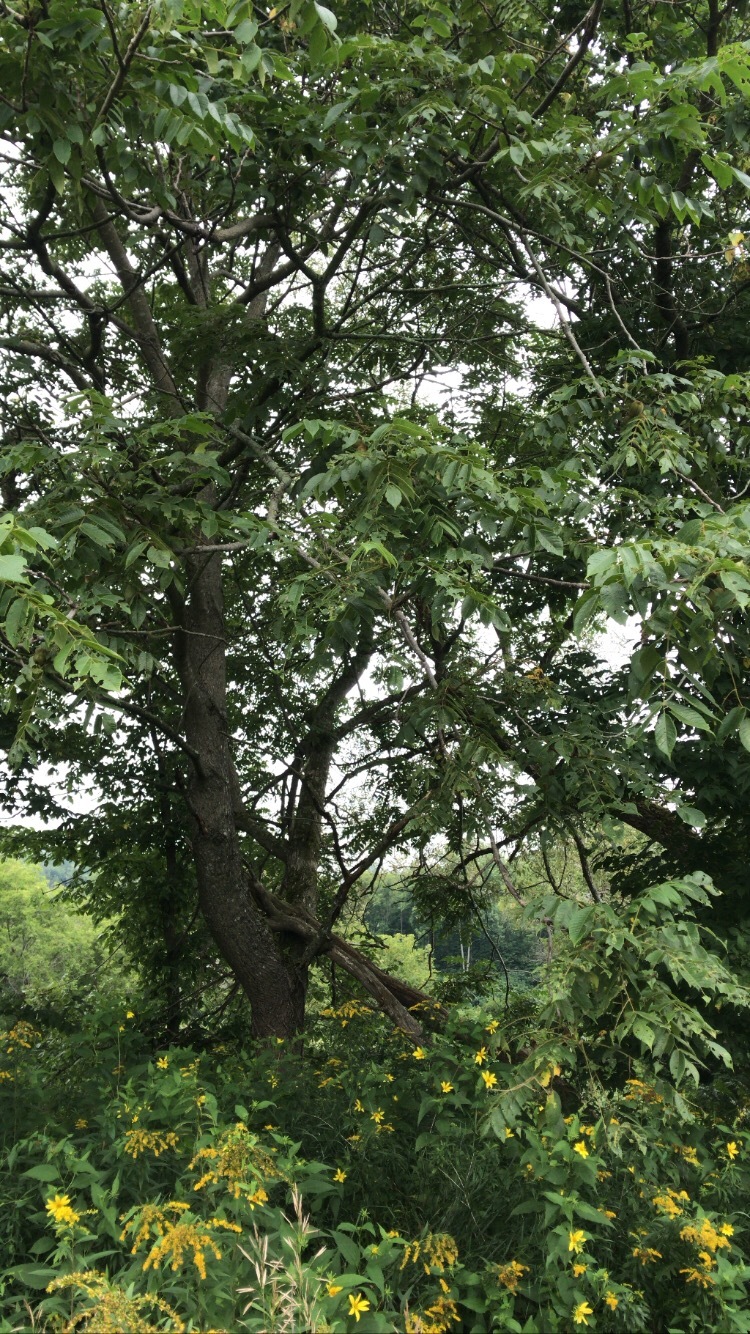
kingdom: Plantae
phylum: Tracheophyta
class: Magnoliopsida
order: Fagales
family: Juglandaceae
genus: Juglans
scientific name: Juglans cinerea
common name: Butternut
